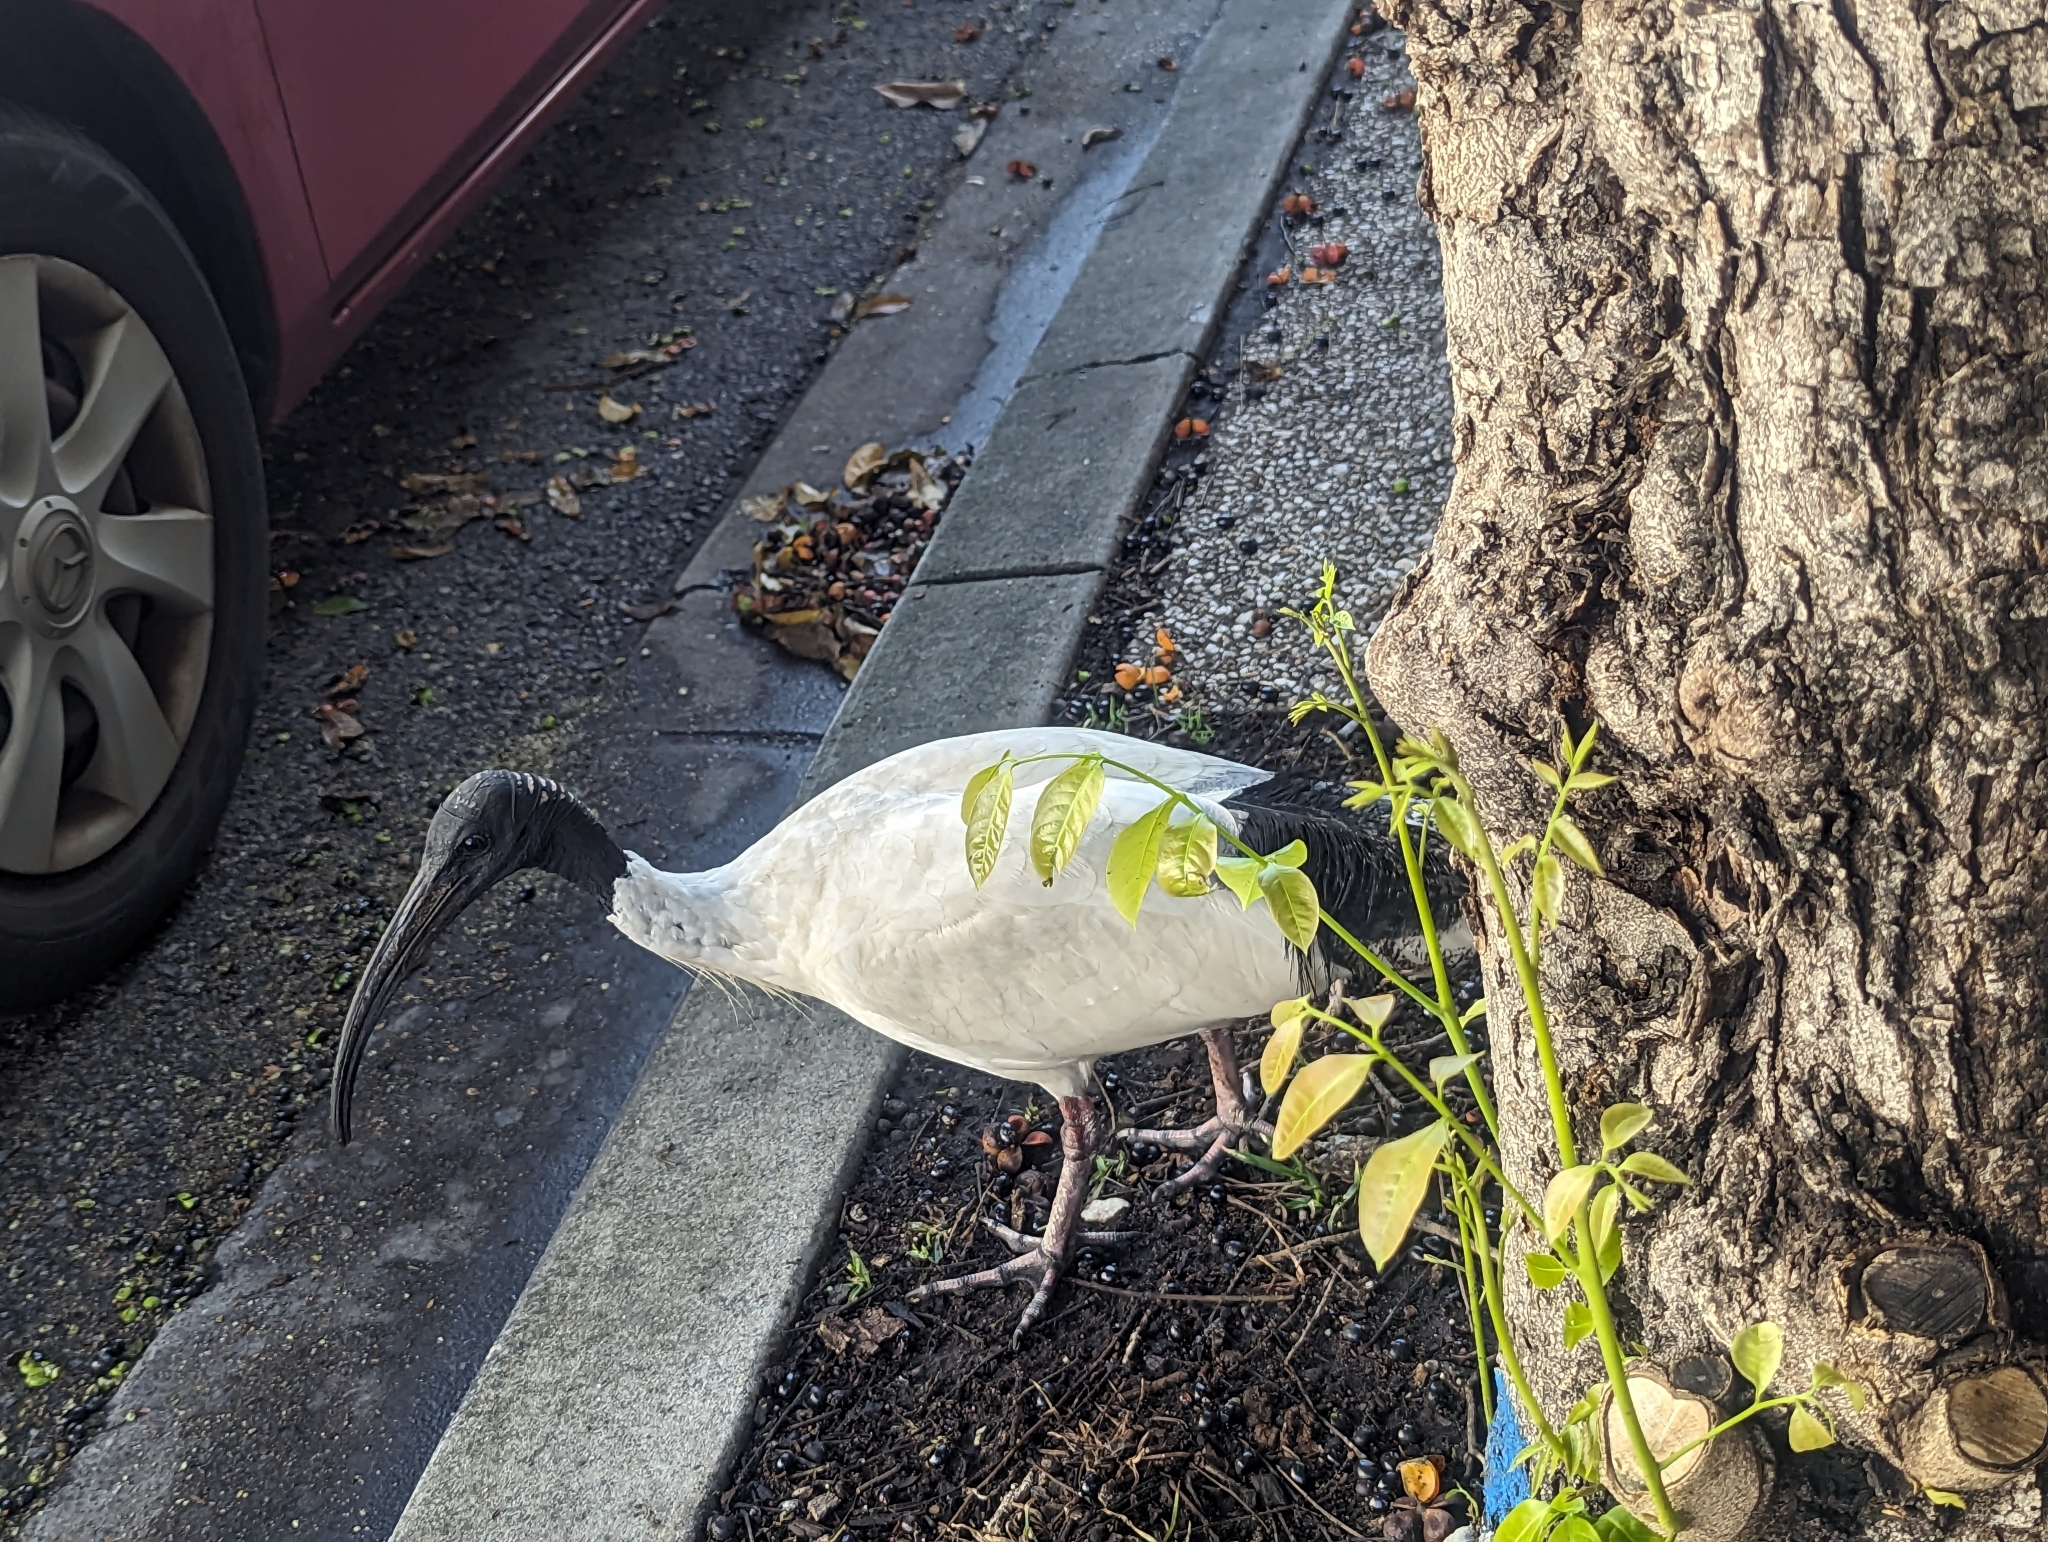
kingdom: Animalia
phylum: Chordata
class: Aves
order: Pelecaniformes
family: Threskiornithidae
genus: Threskiornis
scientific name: Threskiornis molucca
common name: Australian white ibis
